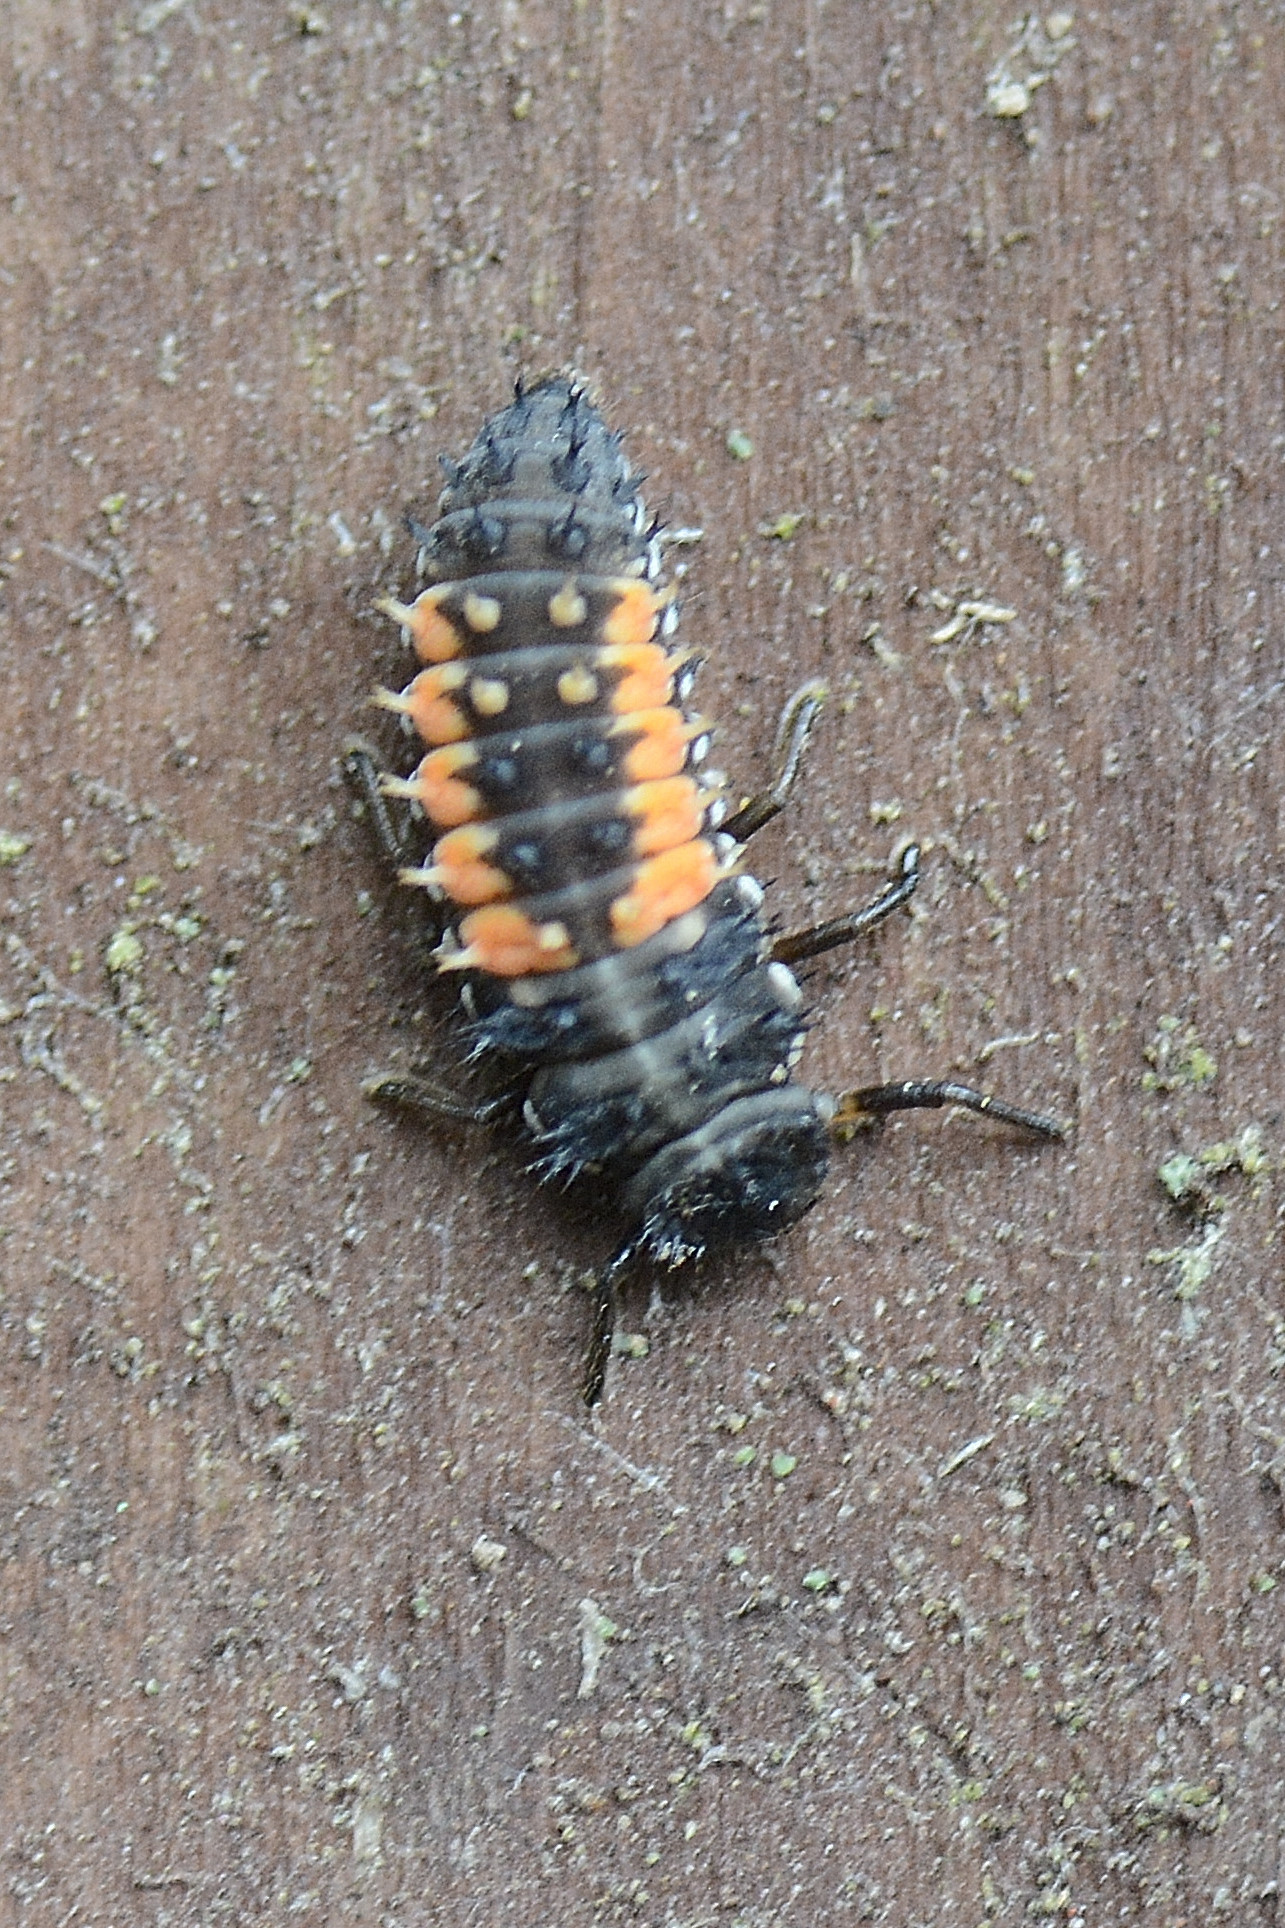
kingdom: Animalia
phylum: Arthropoda
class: Insecta
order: Coleoptera
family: Coccinellidae
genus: Harmonia
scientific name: Harmonia axyridis
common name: Harlequin ladybird
